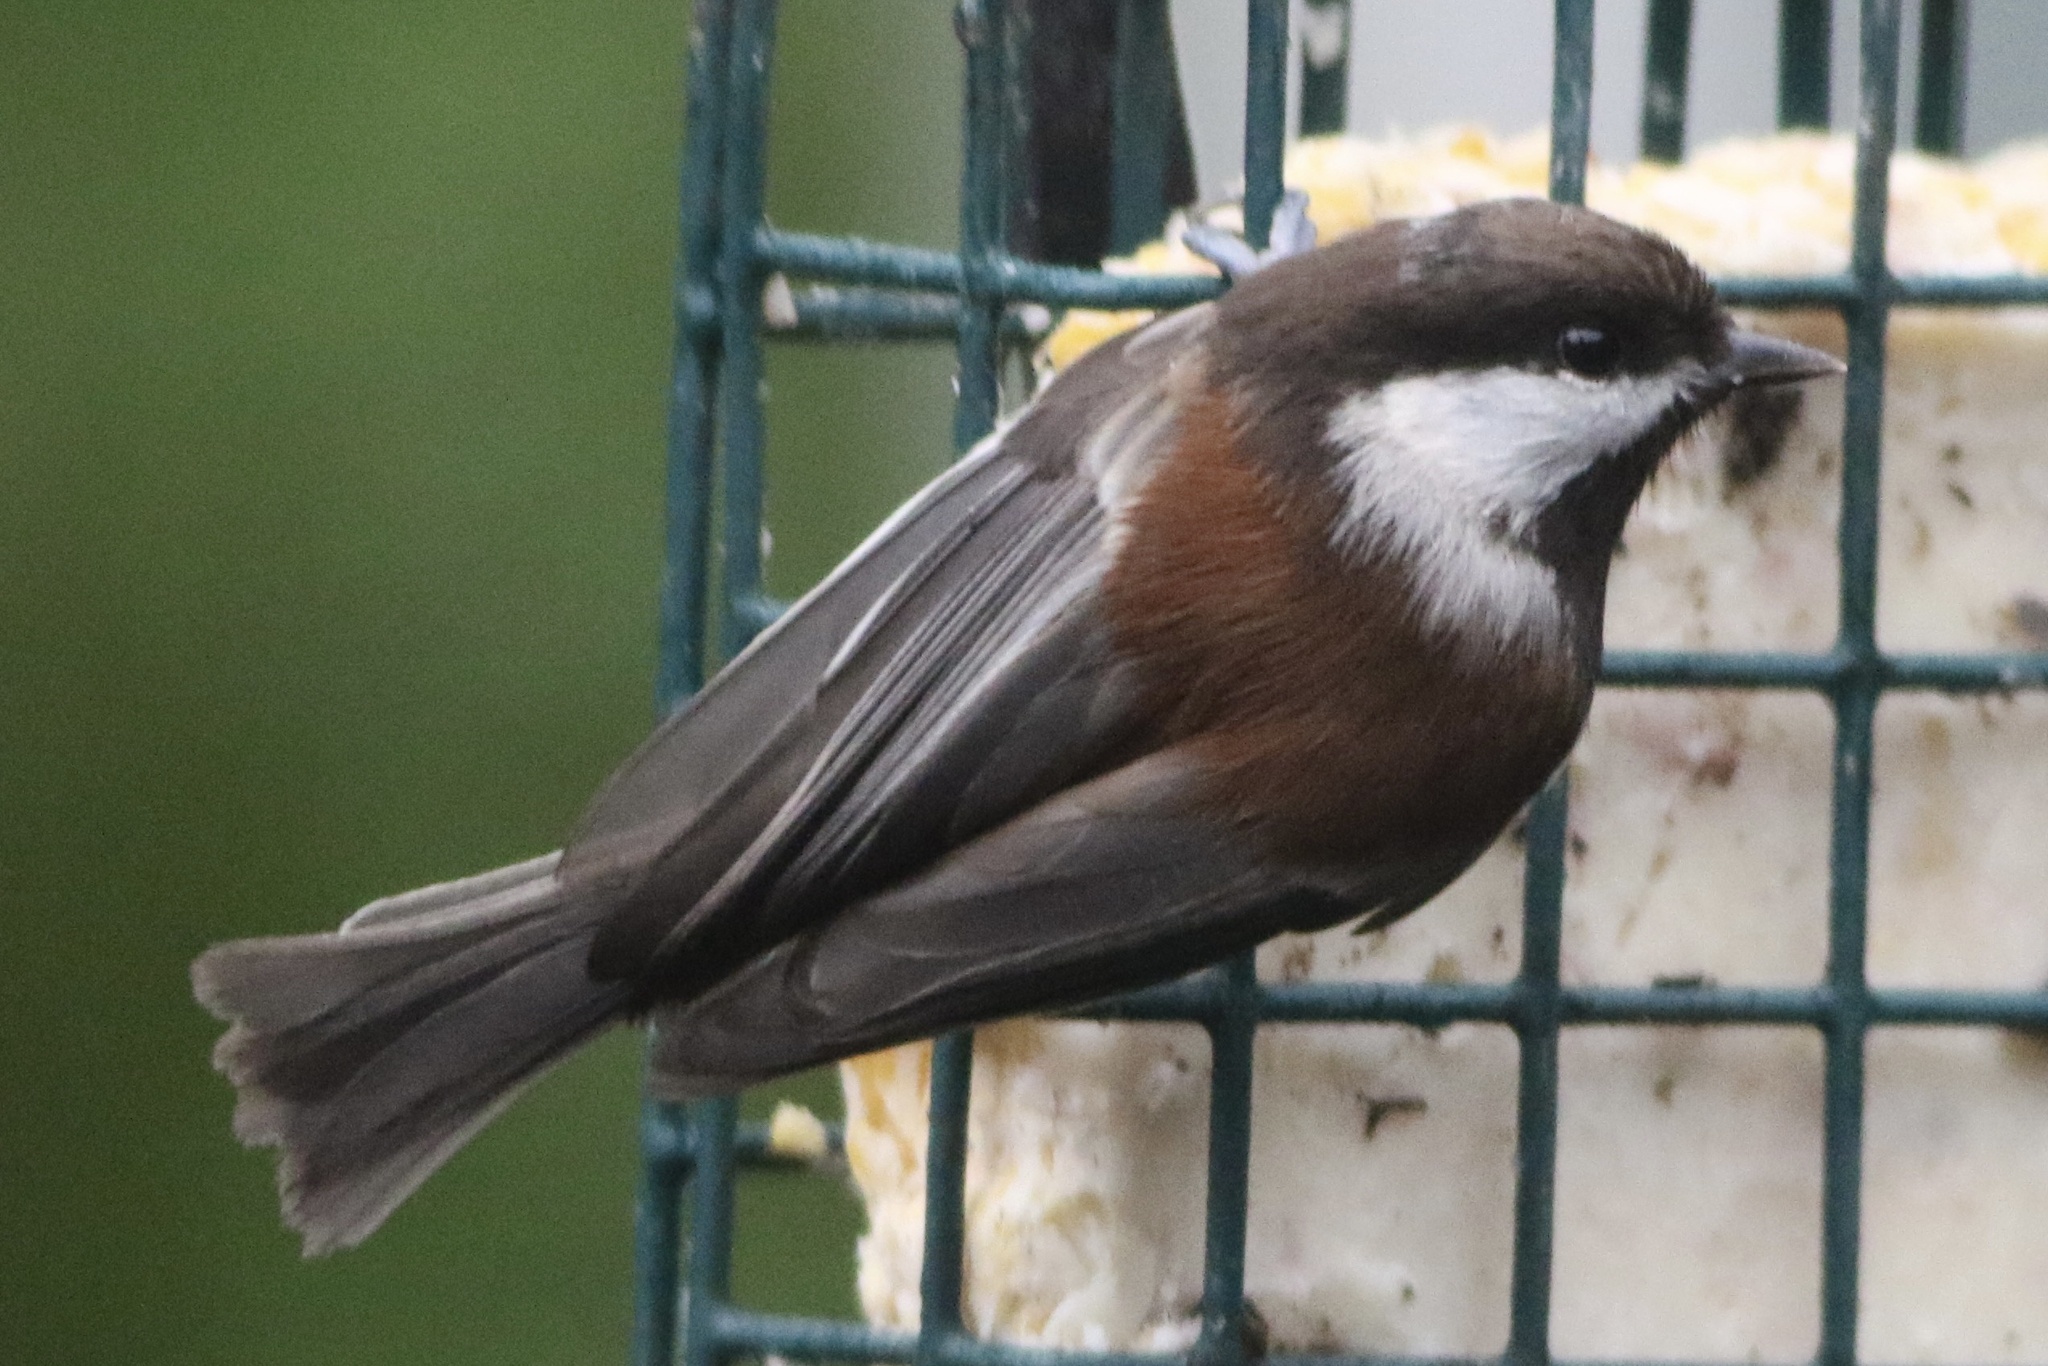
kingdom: Animalia
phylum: Chordata
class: Aves
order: Passeriformes
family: Paridae
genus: Poecile
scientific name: Poecile rufescens
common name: Chestnut-backed chickadee
